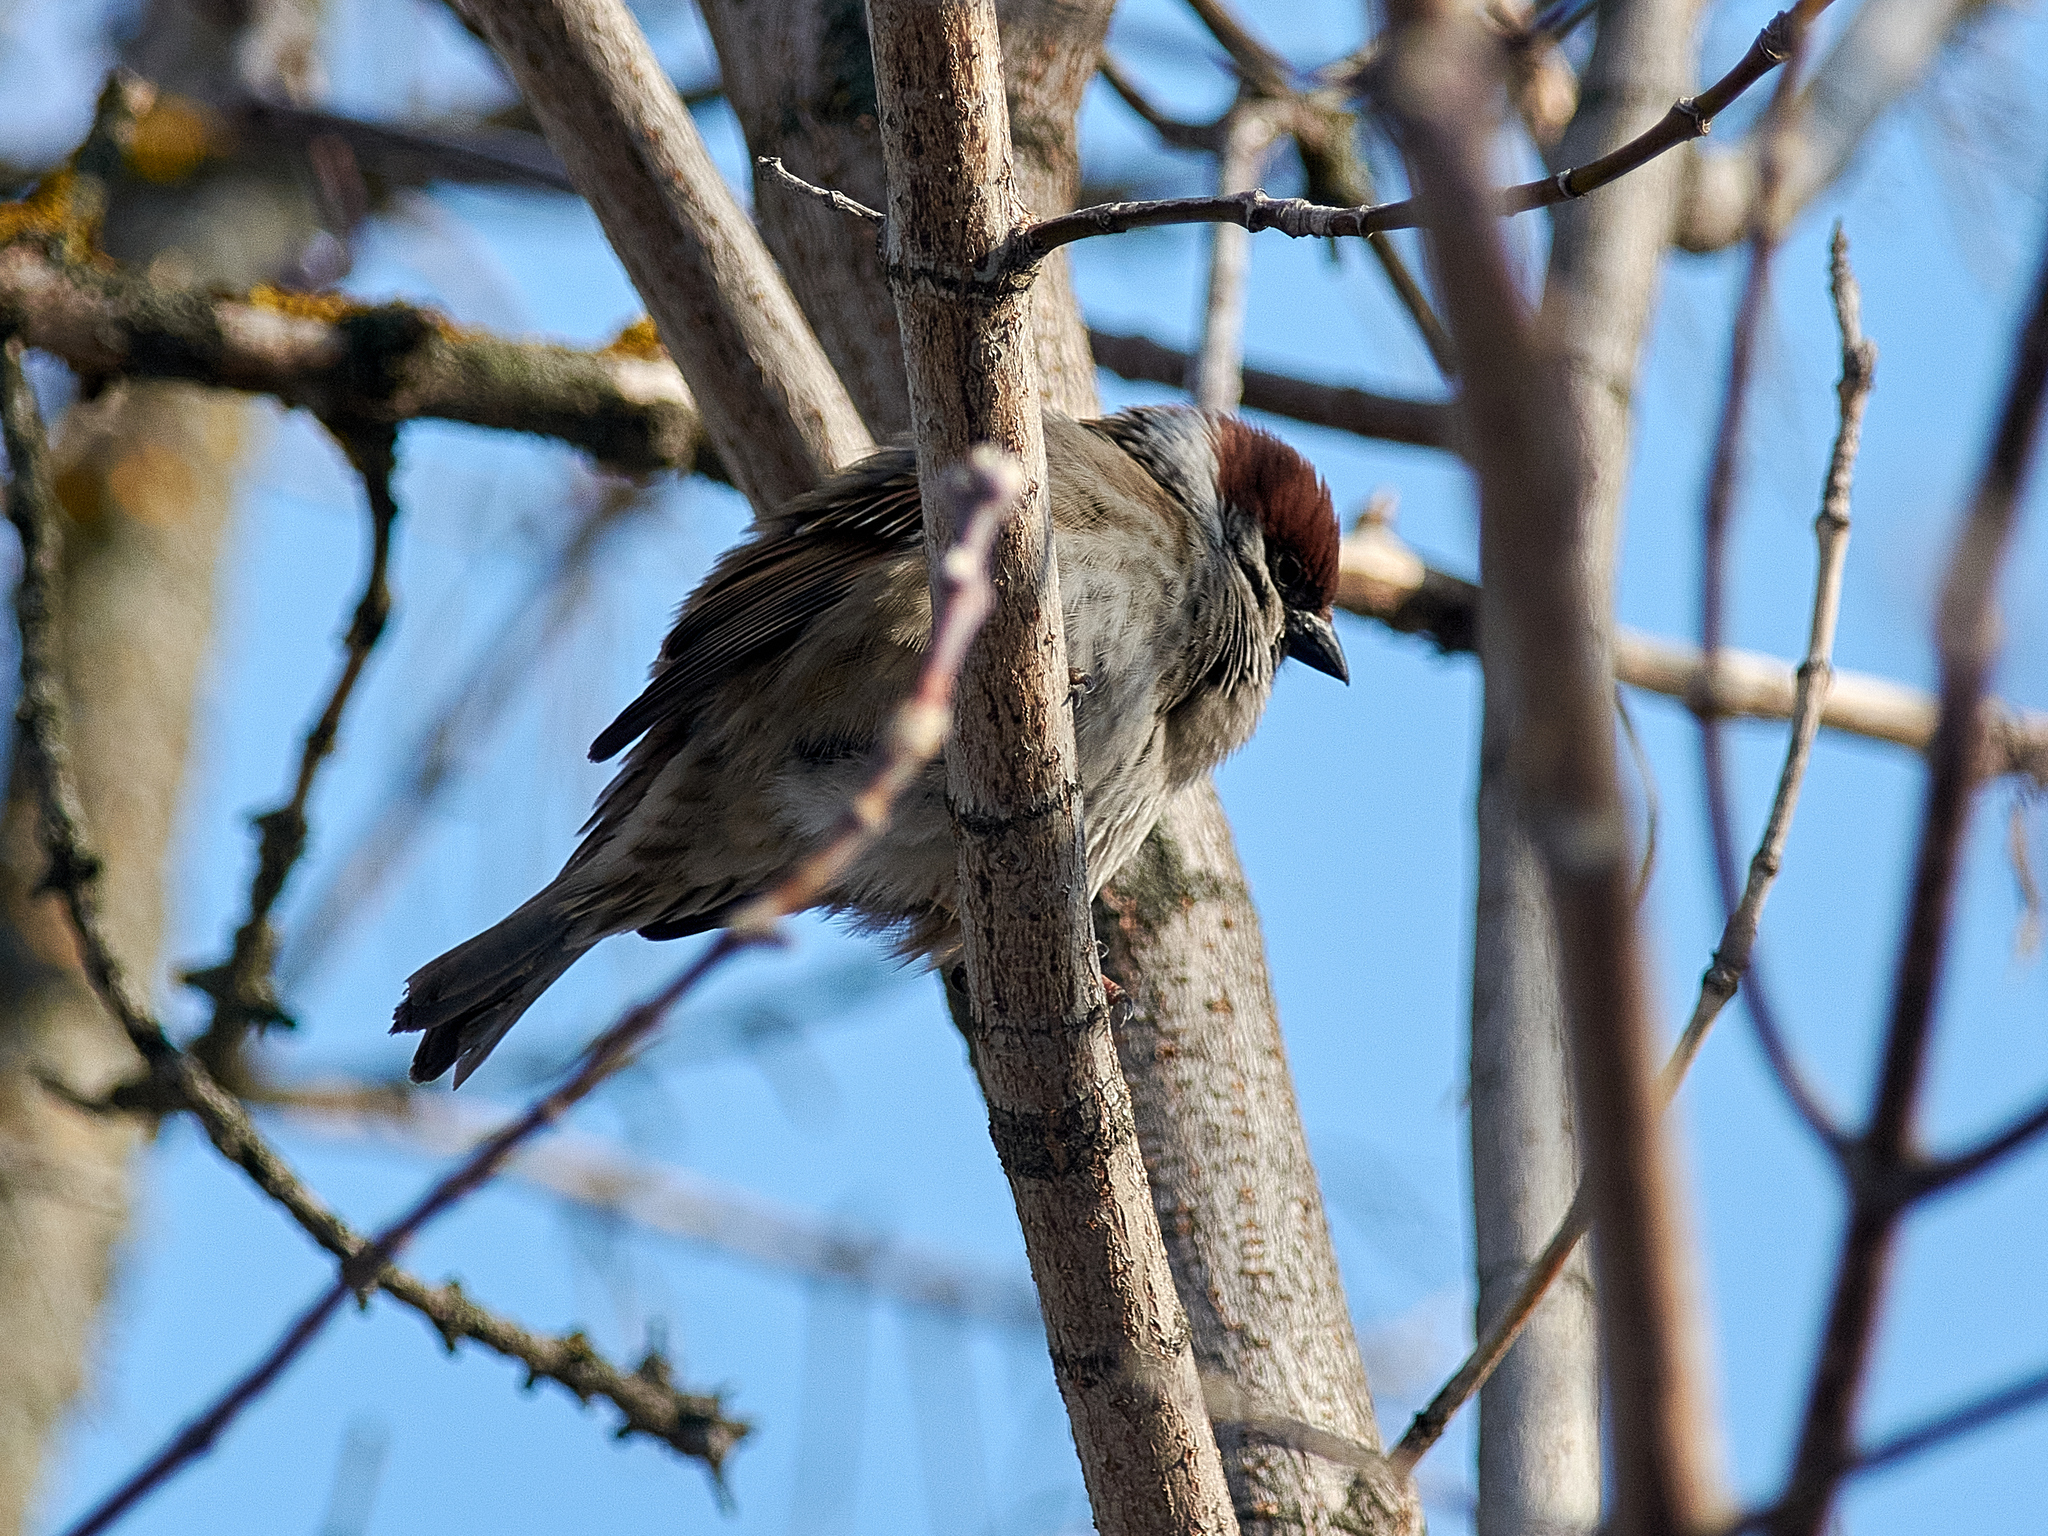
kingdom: Animalia
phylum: Chordata
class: Aves
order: Passeriformes
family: Passeridae
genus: Passer
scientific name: Passer montanus
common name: Eurasian tree sparrow
